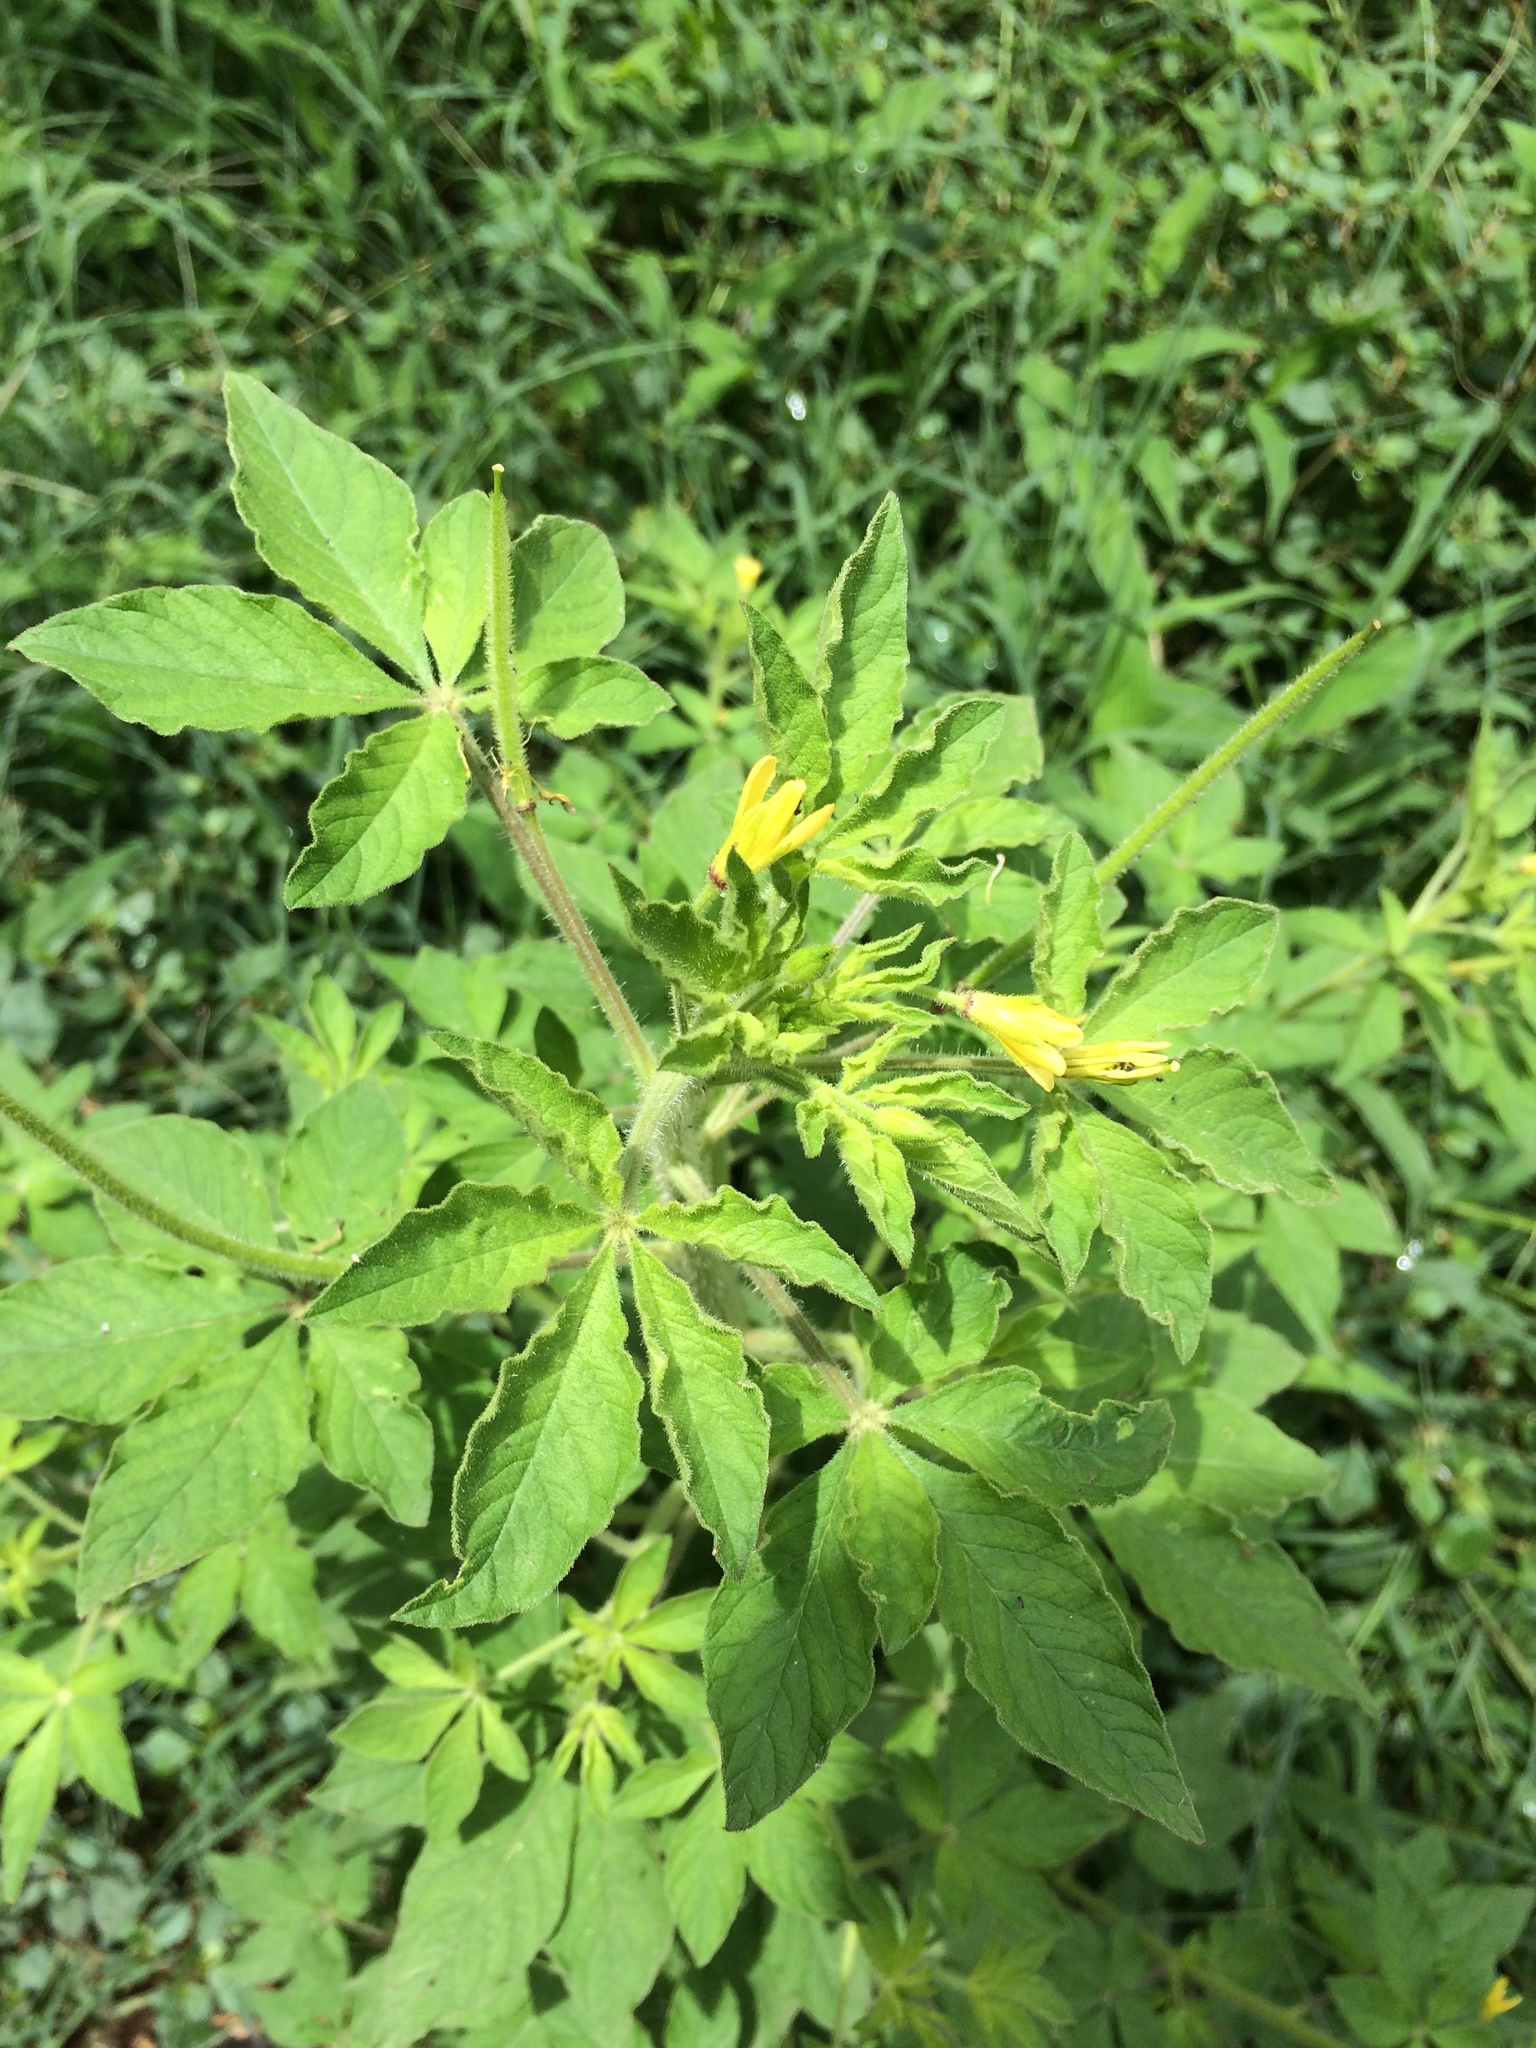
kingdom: Plantae
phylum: Tracheophyta
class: Magnoliopsida
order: Brassicales
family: Cleomaceae
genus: Arivela
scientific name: Arivela viscosa
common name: Asian spiderflower
